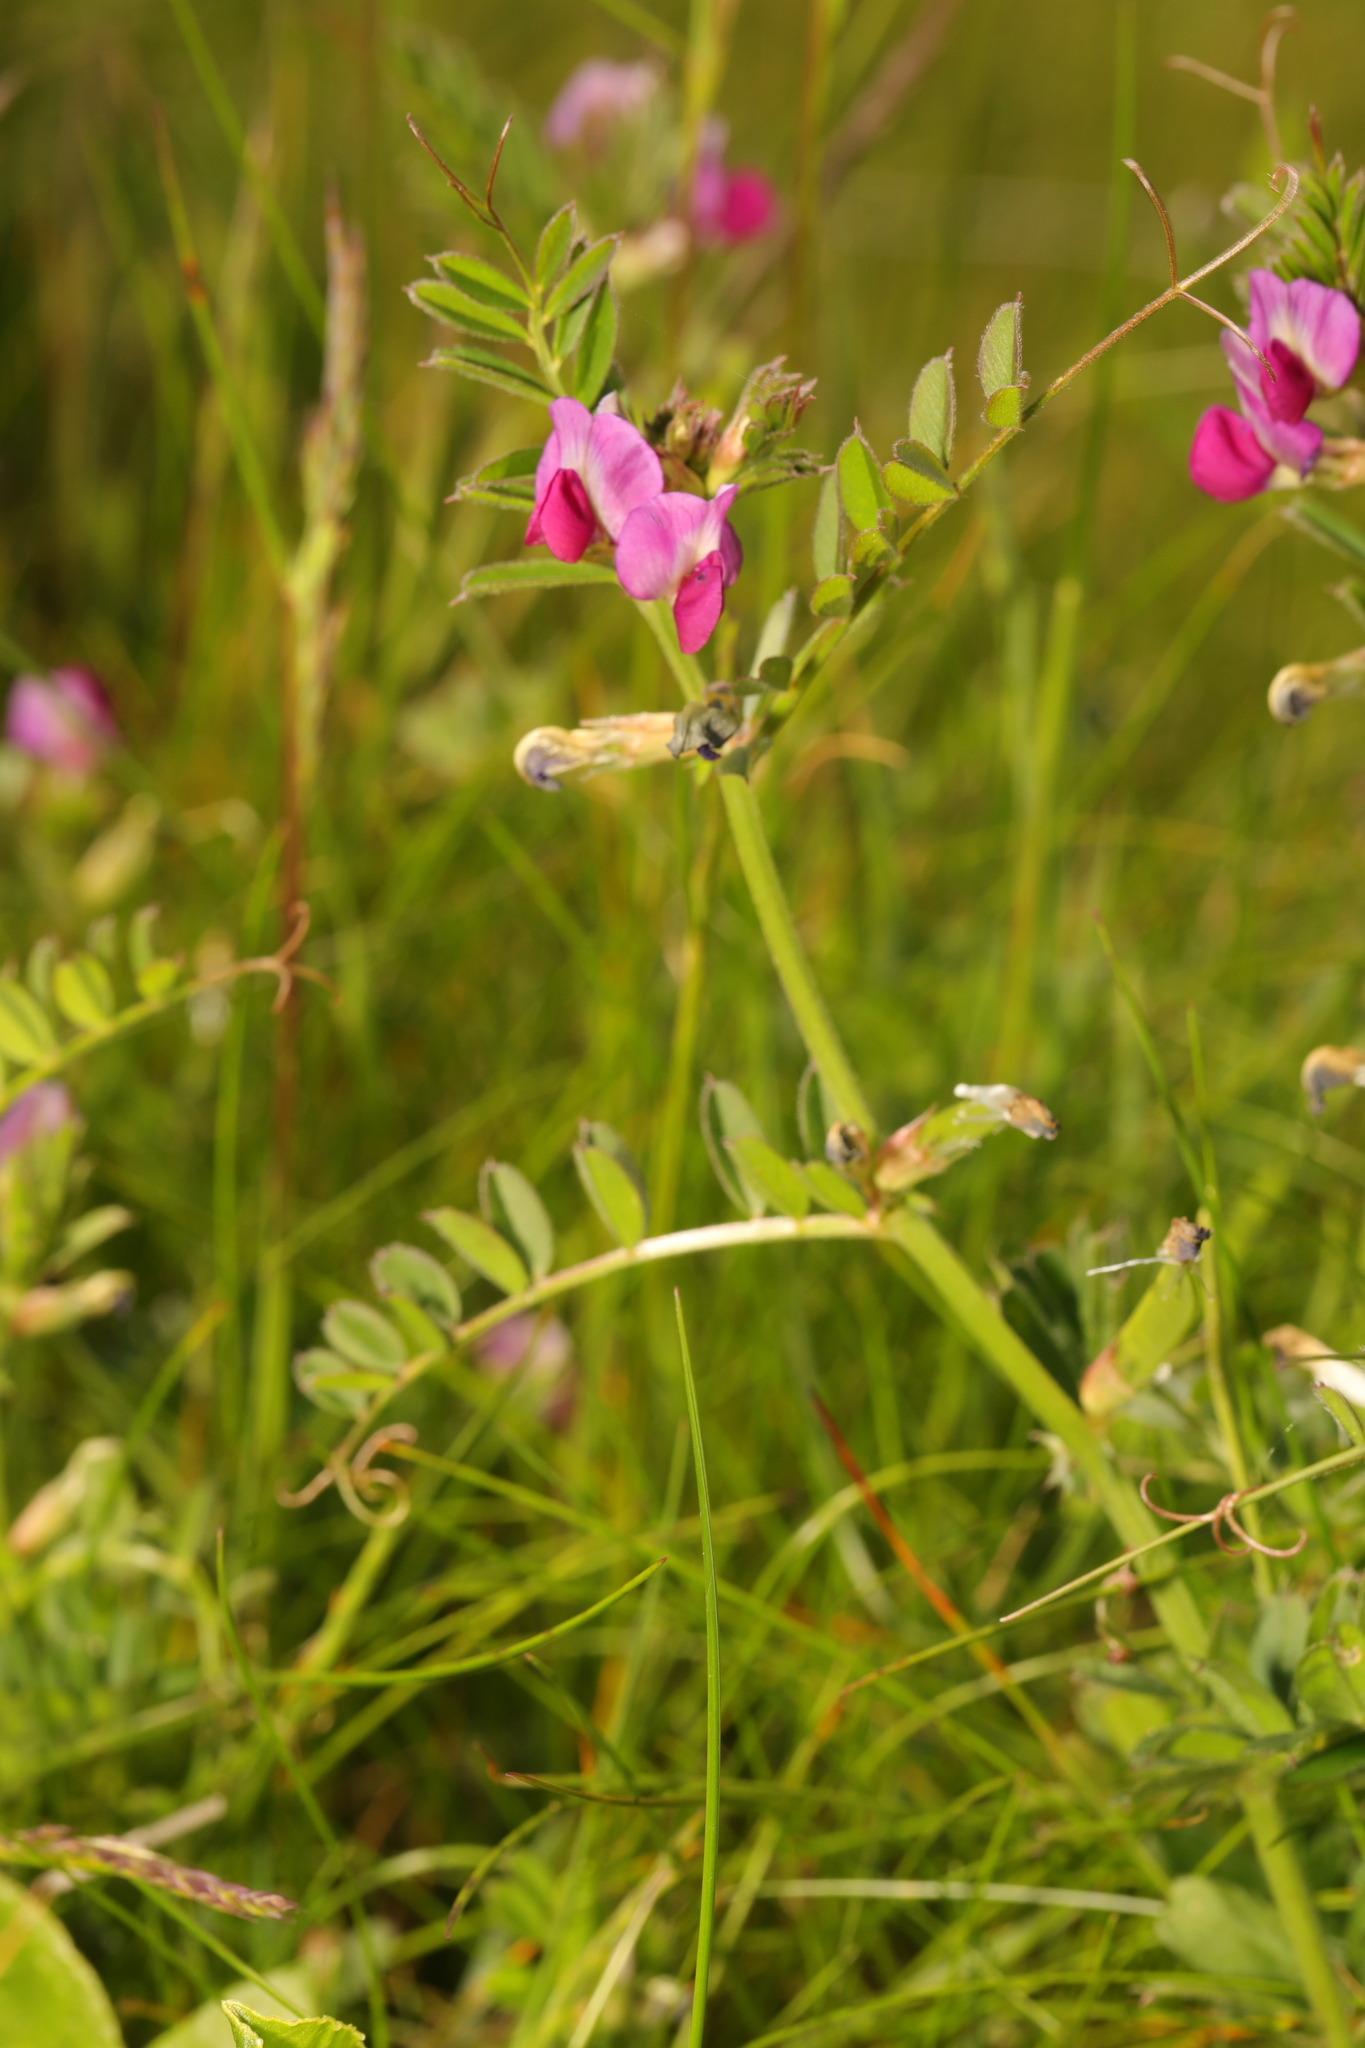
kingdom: Plantae
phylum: Tracheophyta
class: Magnoliopsida
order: Fabales
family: Fabaceae
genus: Vicia
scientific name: Vicia sativa
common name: Garden vetch
